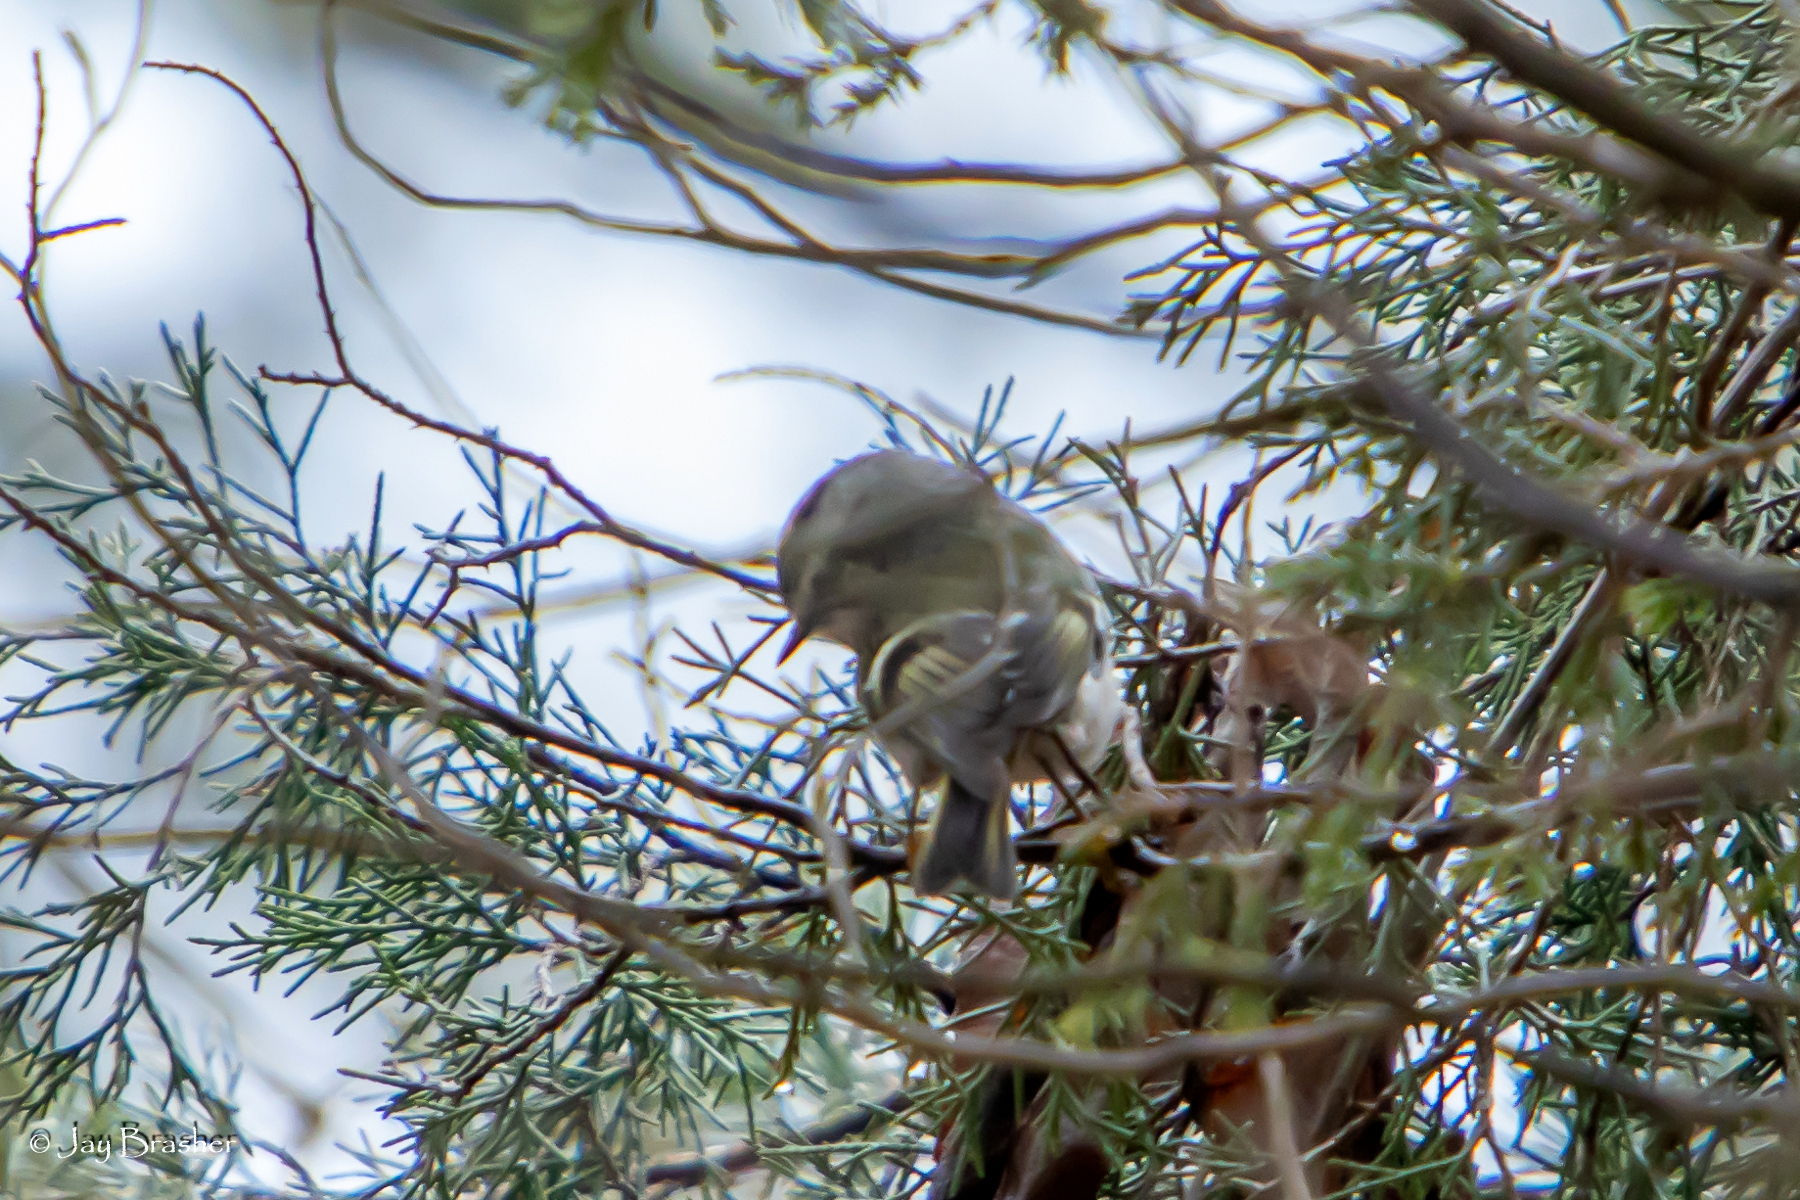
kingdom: Animalia
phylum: Chordata
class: Aves
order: Passeriformes
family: Regulidae
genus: Regulus
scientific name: Regulus satrapa
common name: Golden-crowned kinglet
